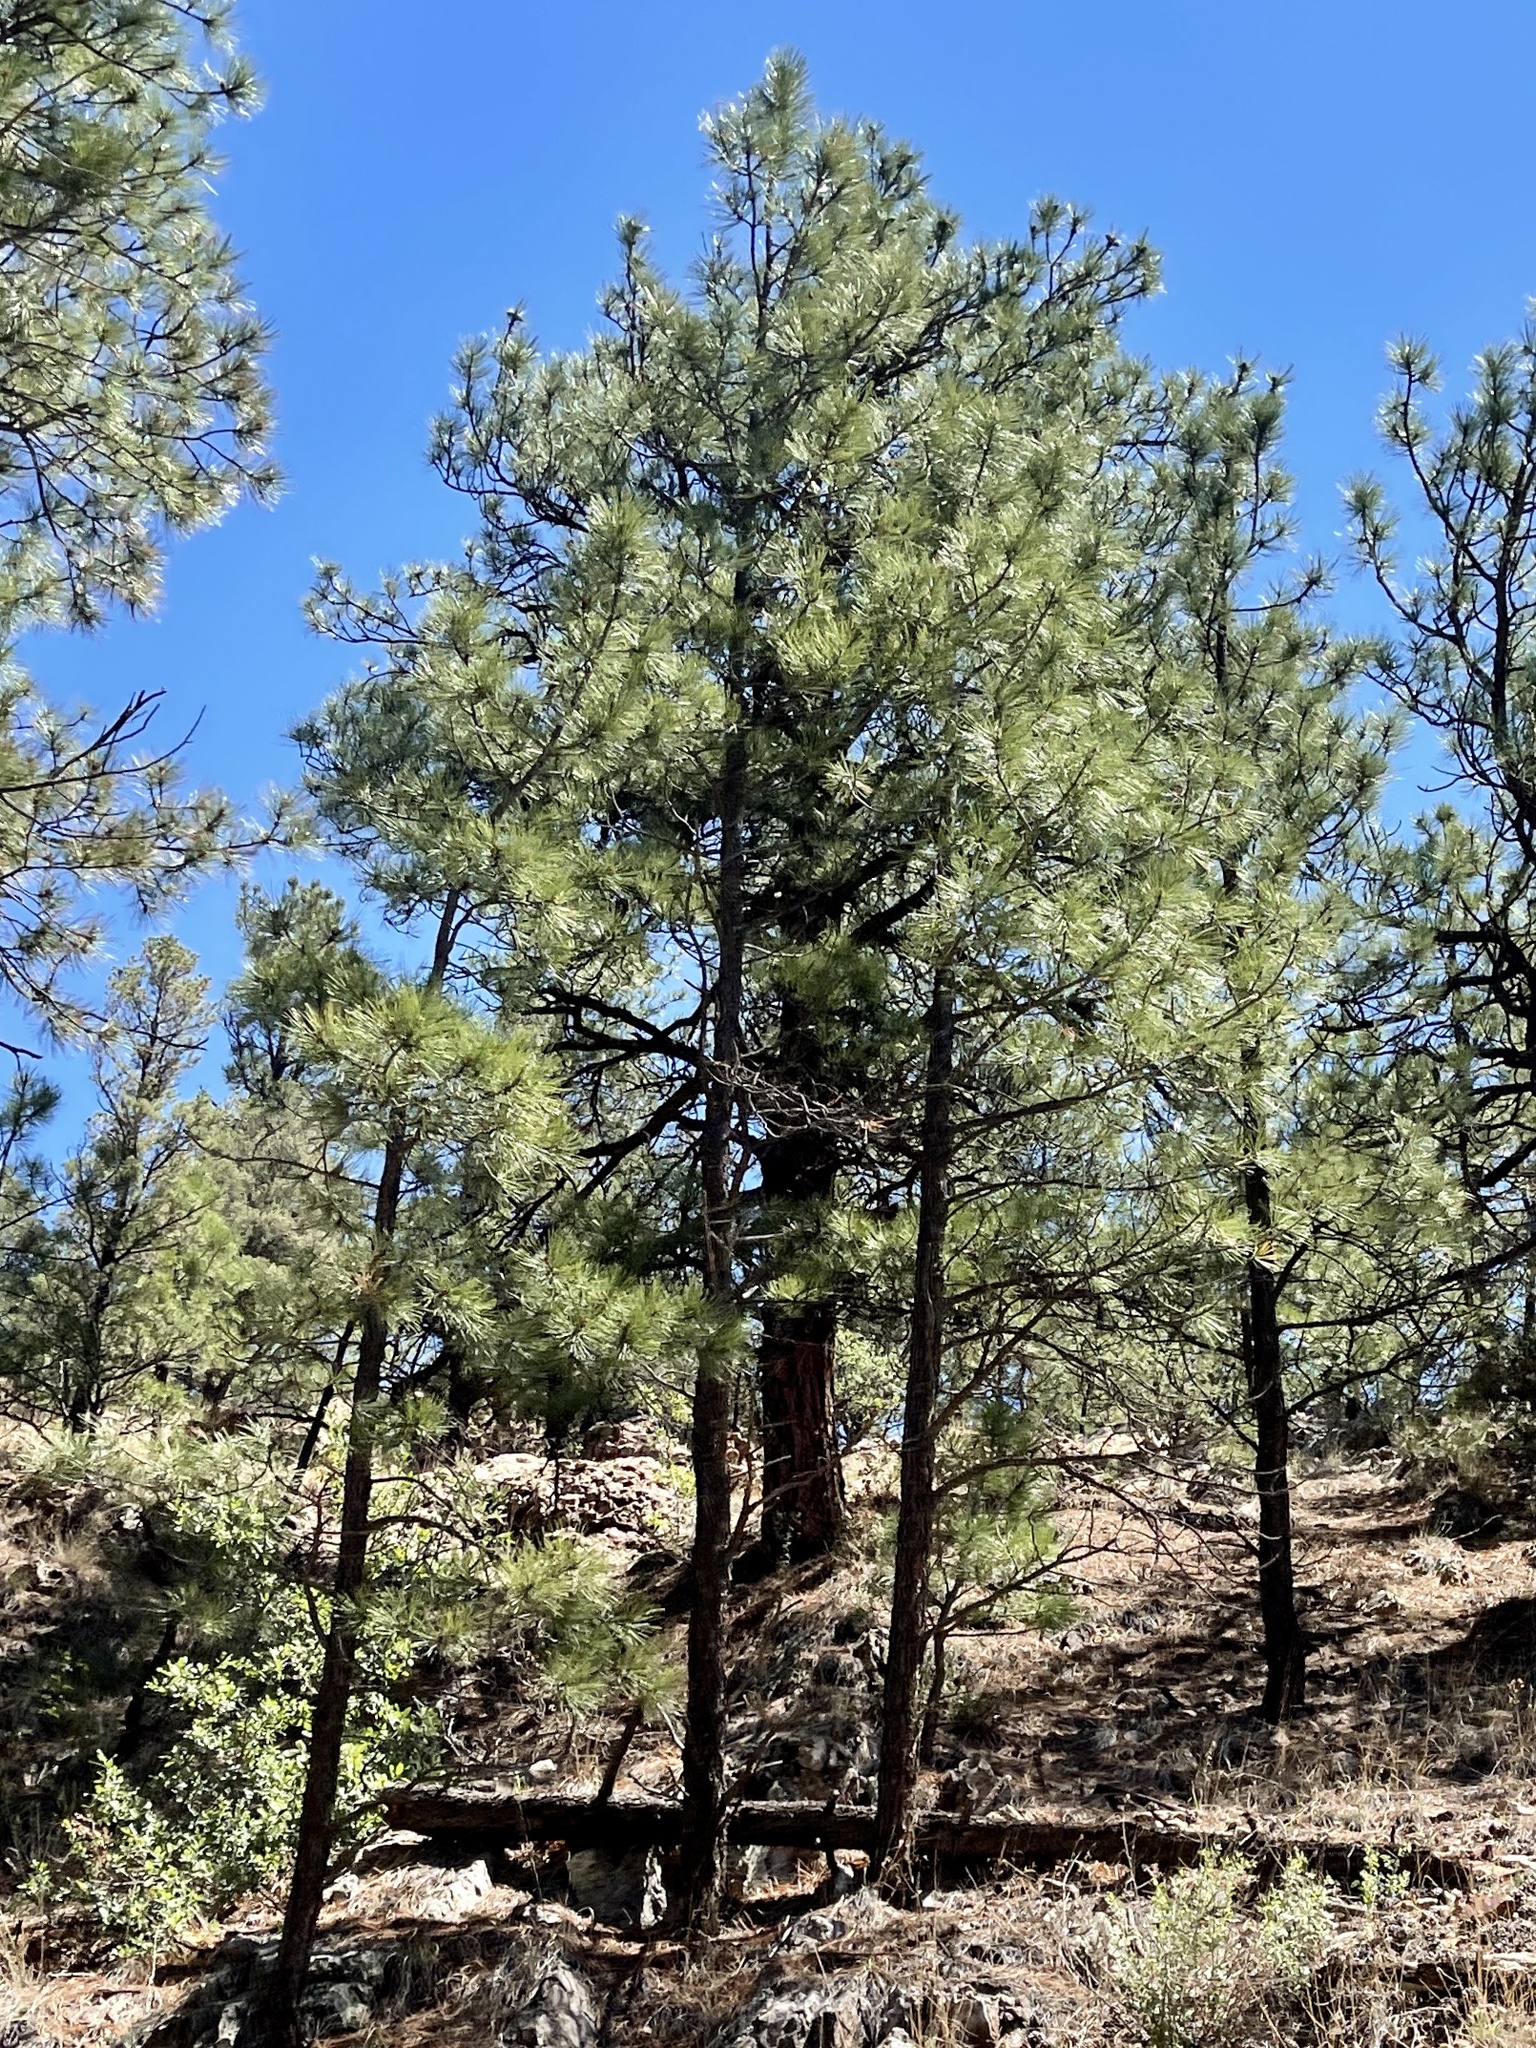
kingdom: Plantae
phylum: Tracheophyta
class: Pinopsida
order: Pinales
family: Pinaceae
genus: Pinus
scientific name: Pinus ponderosa
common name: Western yellow-pine
